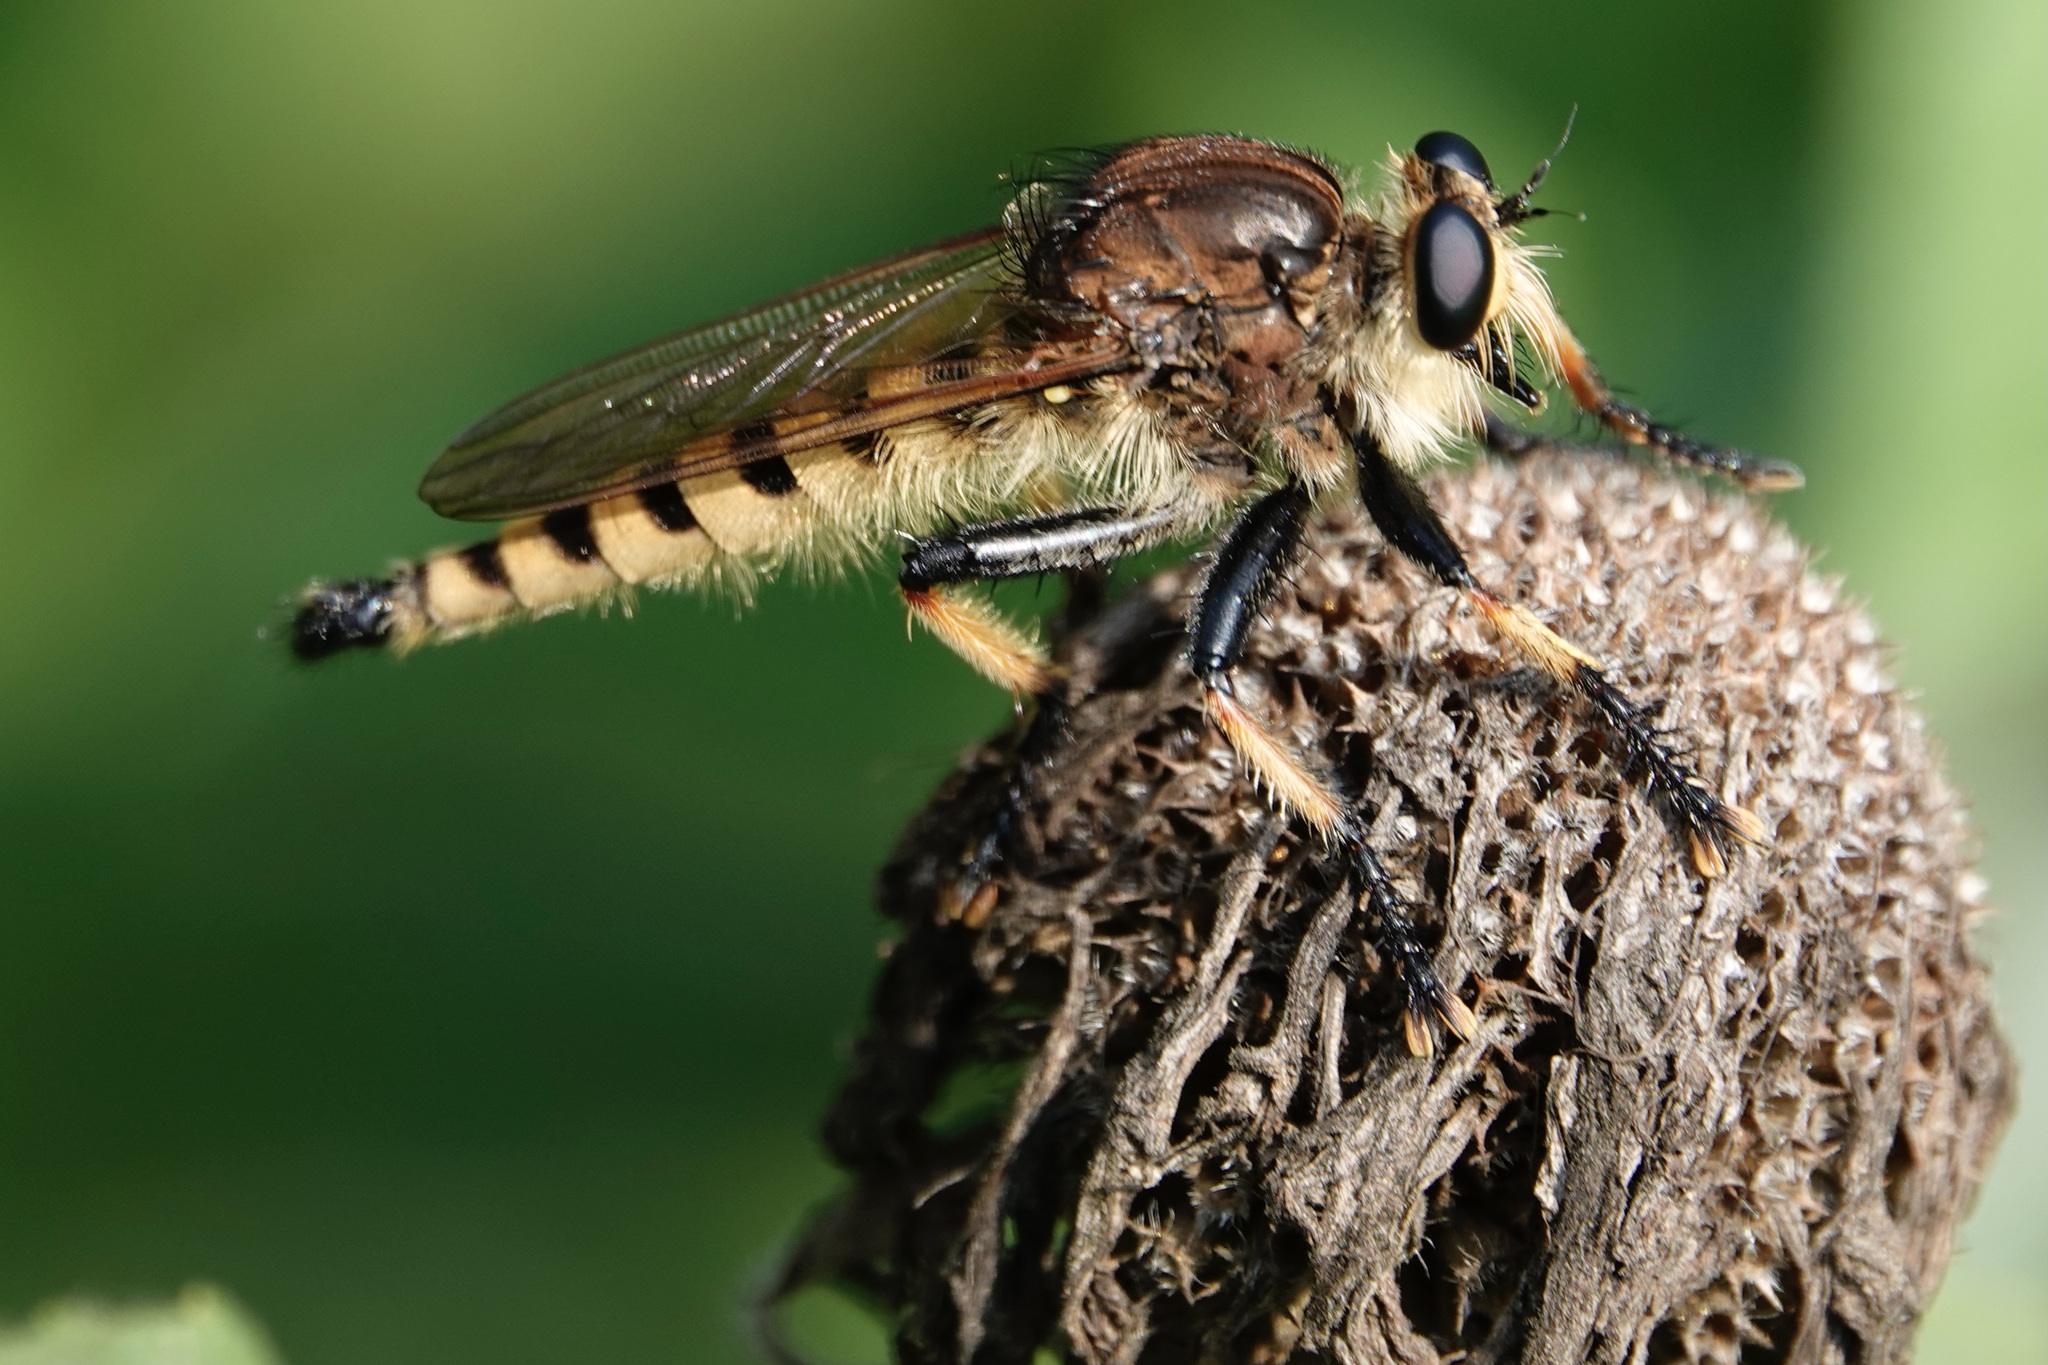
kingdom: Animalia
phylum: Arthropoda
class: Insecta
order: Diptera
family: Asilidae
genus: Promachus
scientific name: Promachus rufipes
